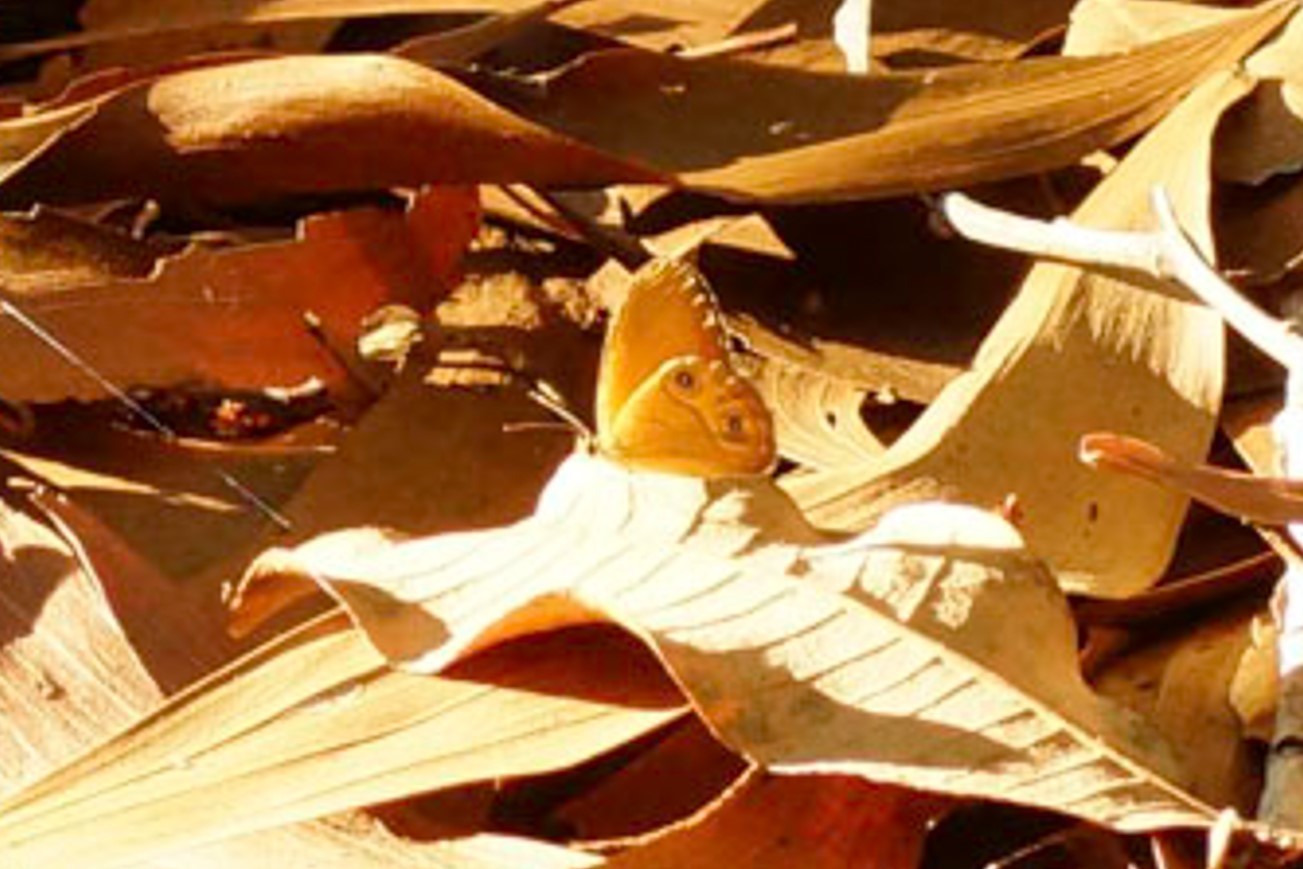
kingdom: Animalia
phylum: Arthropoda
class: Insecta
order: Lepidoptera
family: Nymphalidae
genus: Hypocysta
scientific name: Hypocysta adiante
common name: Orange ringlet
